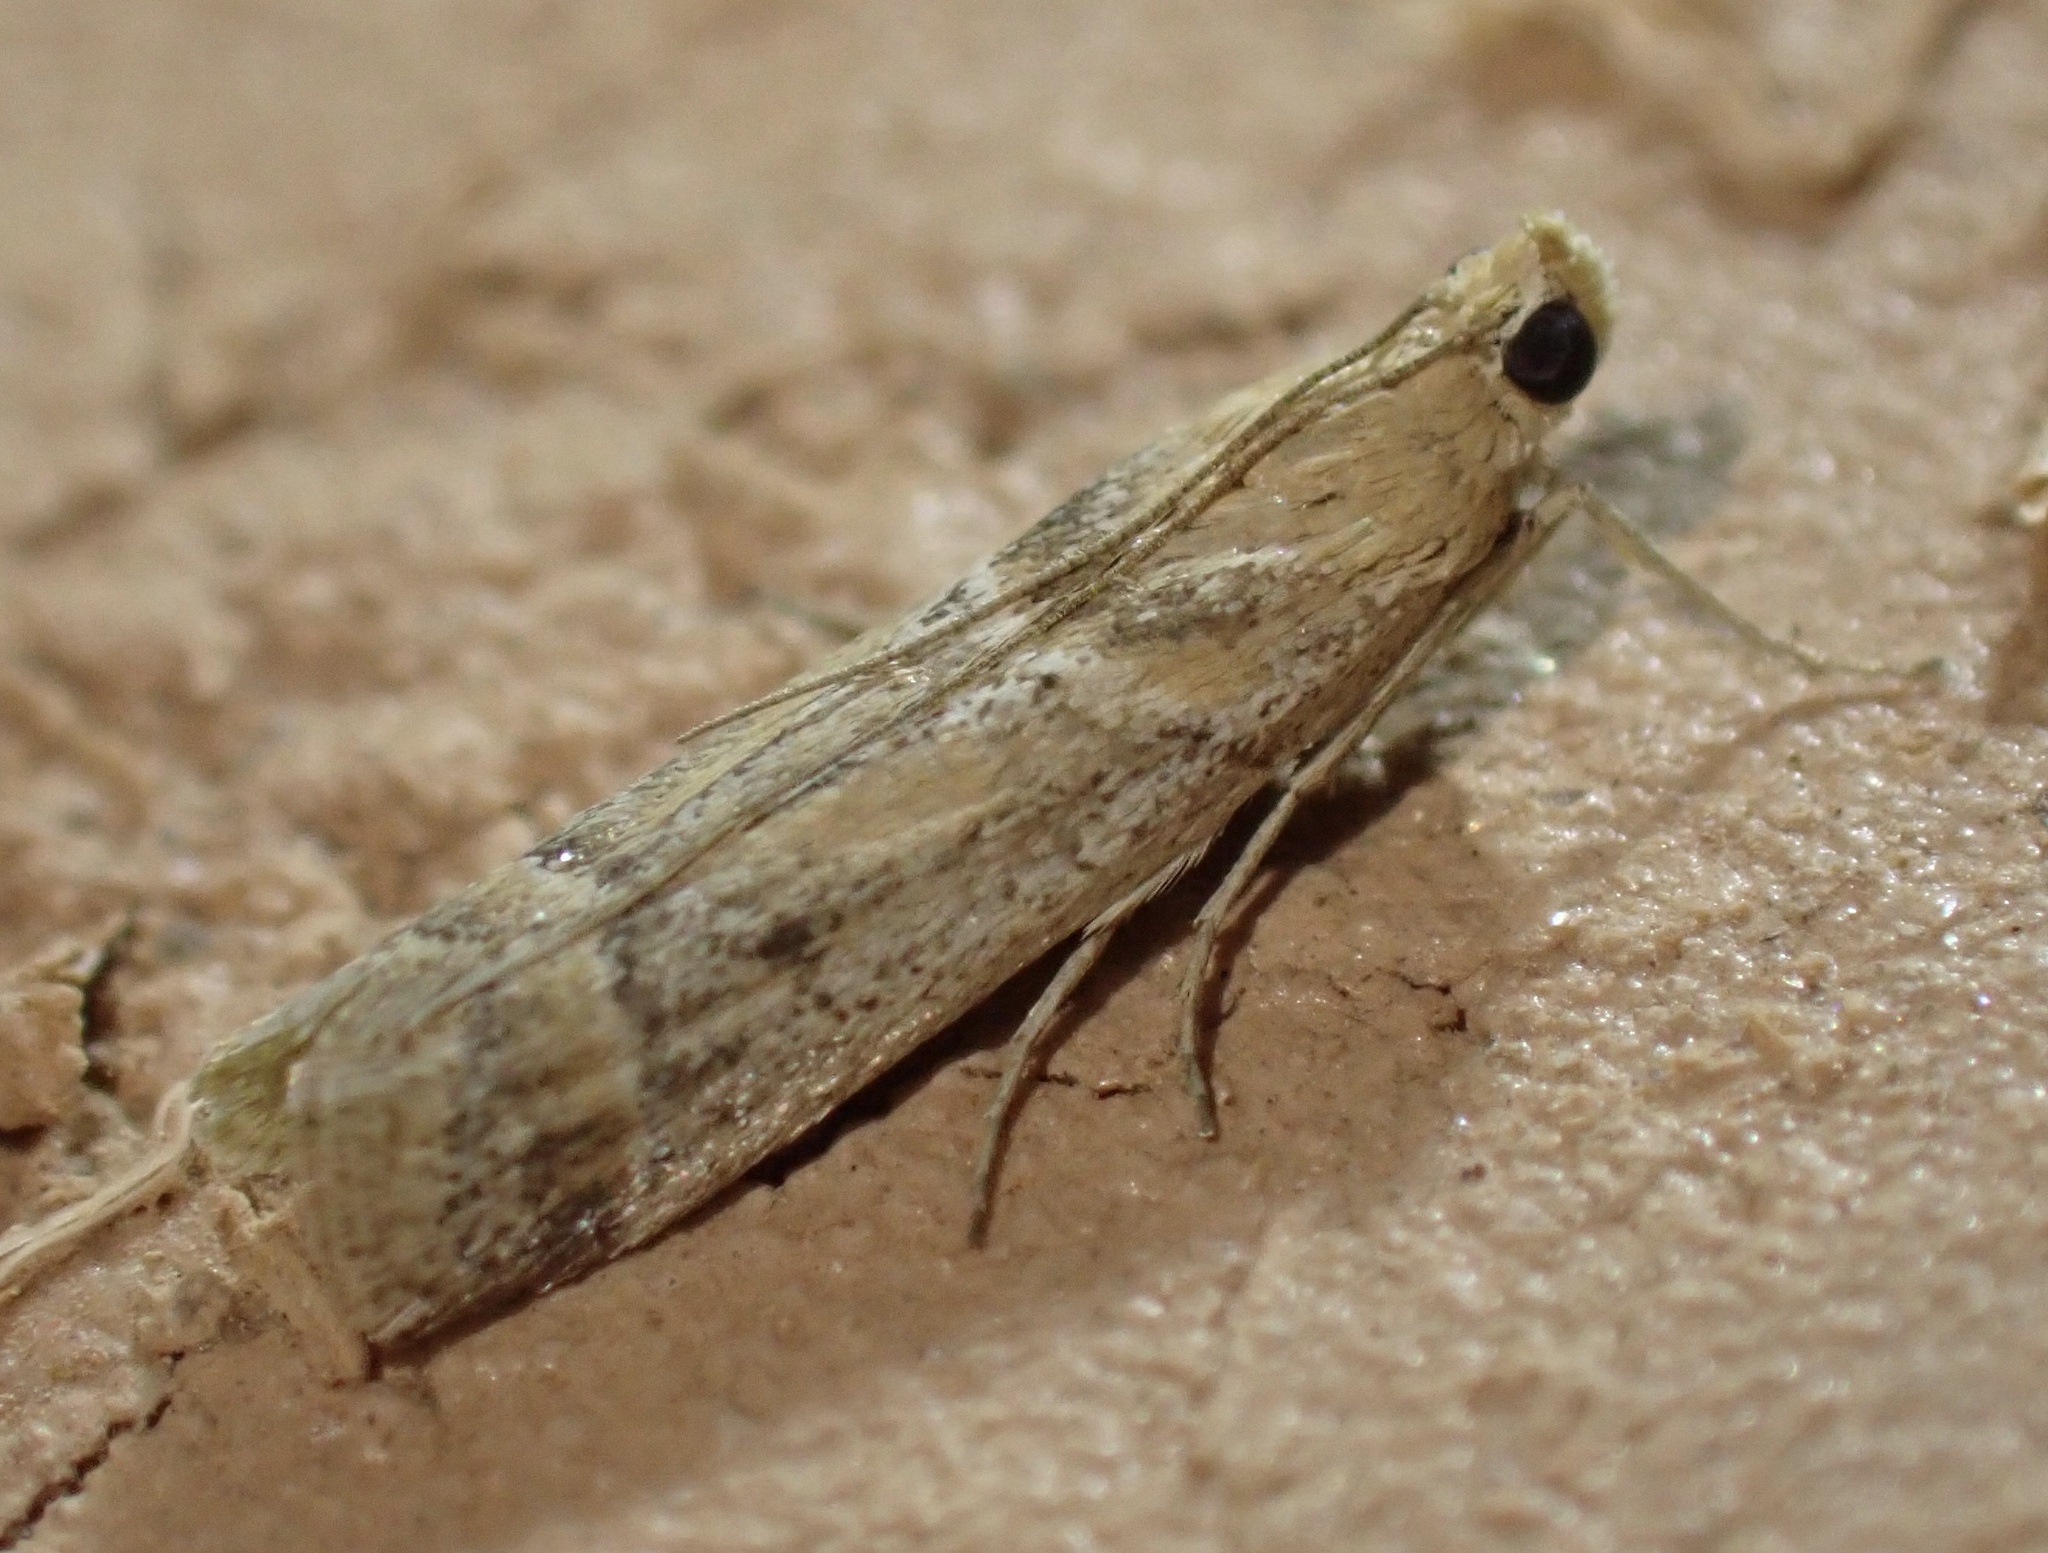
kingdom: Animalia
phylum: Arthropoda
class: Insecta
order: Lepidoptera
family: Pyralidae
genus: Ancylosis
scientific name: Ancylosis samaritanella
